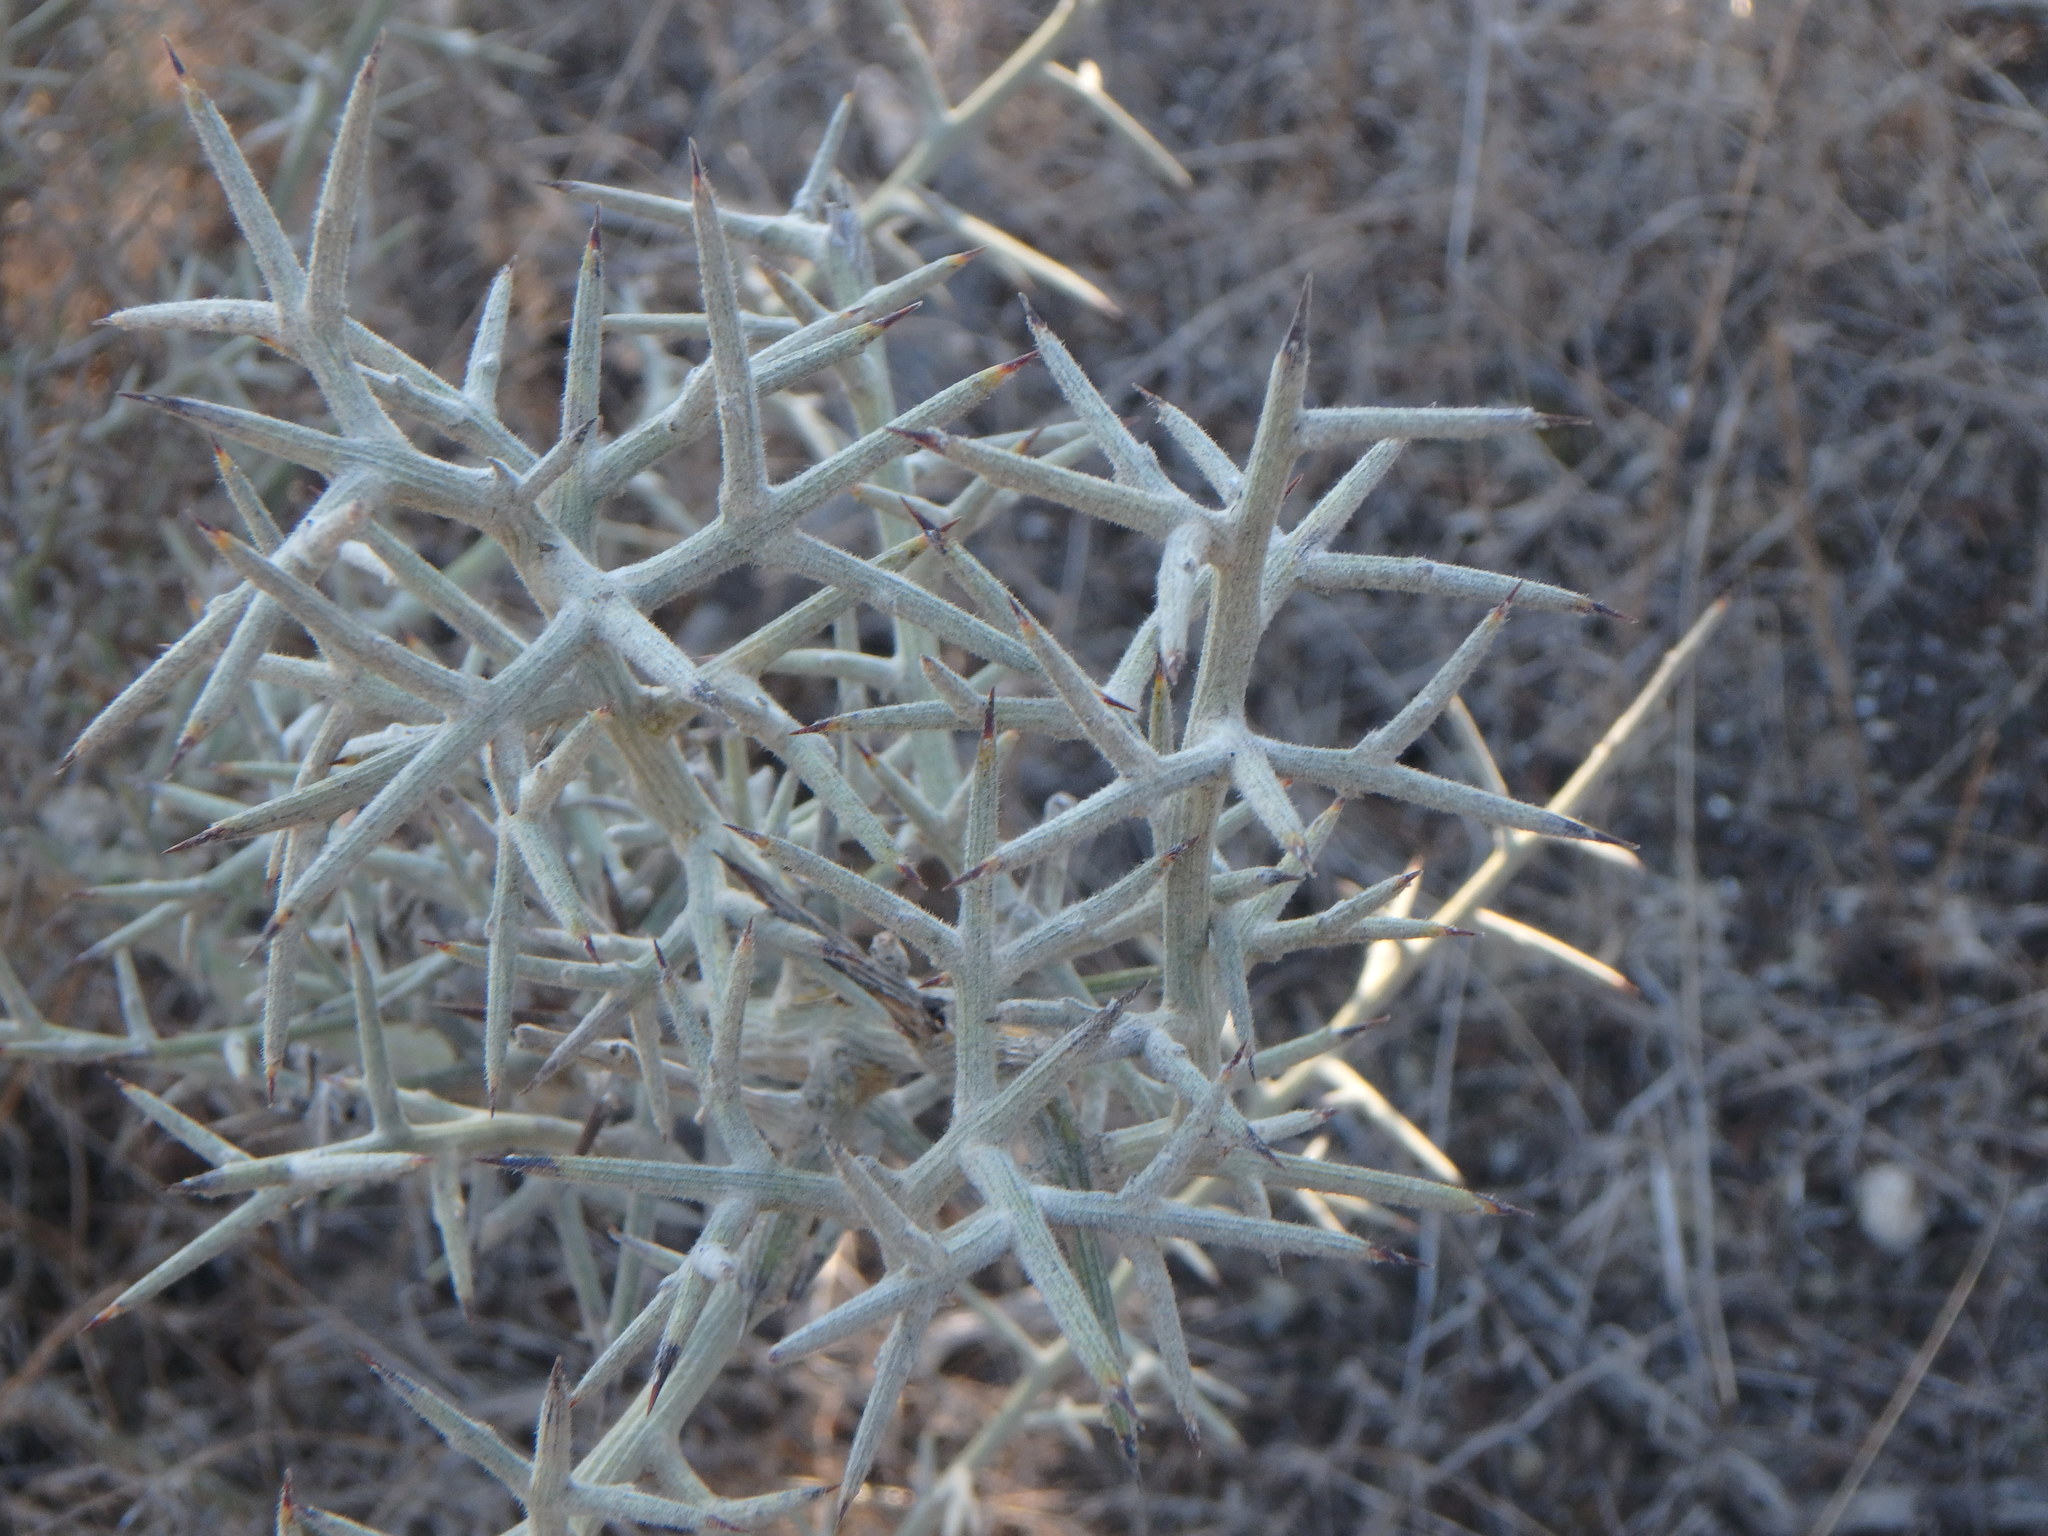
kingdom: Plantae
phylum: Tracheophyta
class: Magnoliopsida
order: Fabales
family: Fabaceae
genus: Calicotome
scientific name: Calicotome villosa
